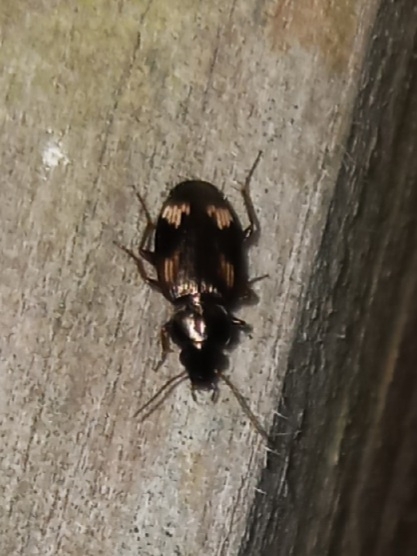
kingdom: Animalia
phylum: Arthropoda
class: Insecta
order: Coleoptera
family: Carabidae
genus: Tetragonoderus
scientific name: Tetragonoderus intersectus
